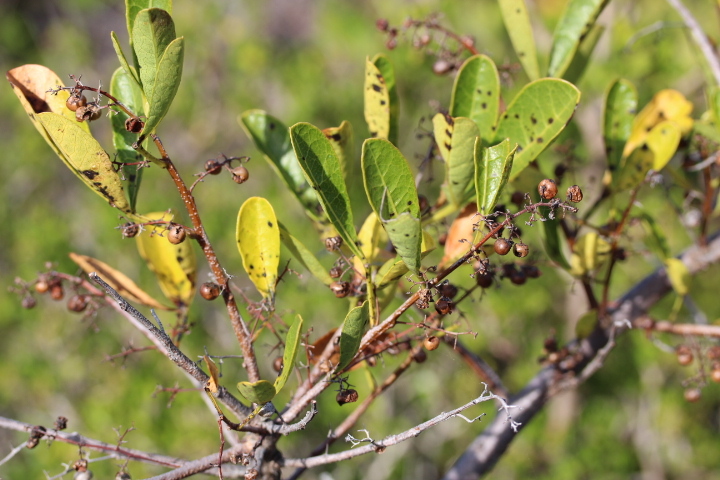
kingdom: Plantae
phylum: Tracheophyta
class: Magnoliopsida
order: Sapindales
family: Anacardiaceae
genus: Searsia
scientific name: Searsia laevigata
